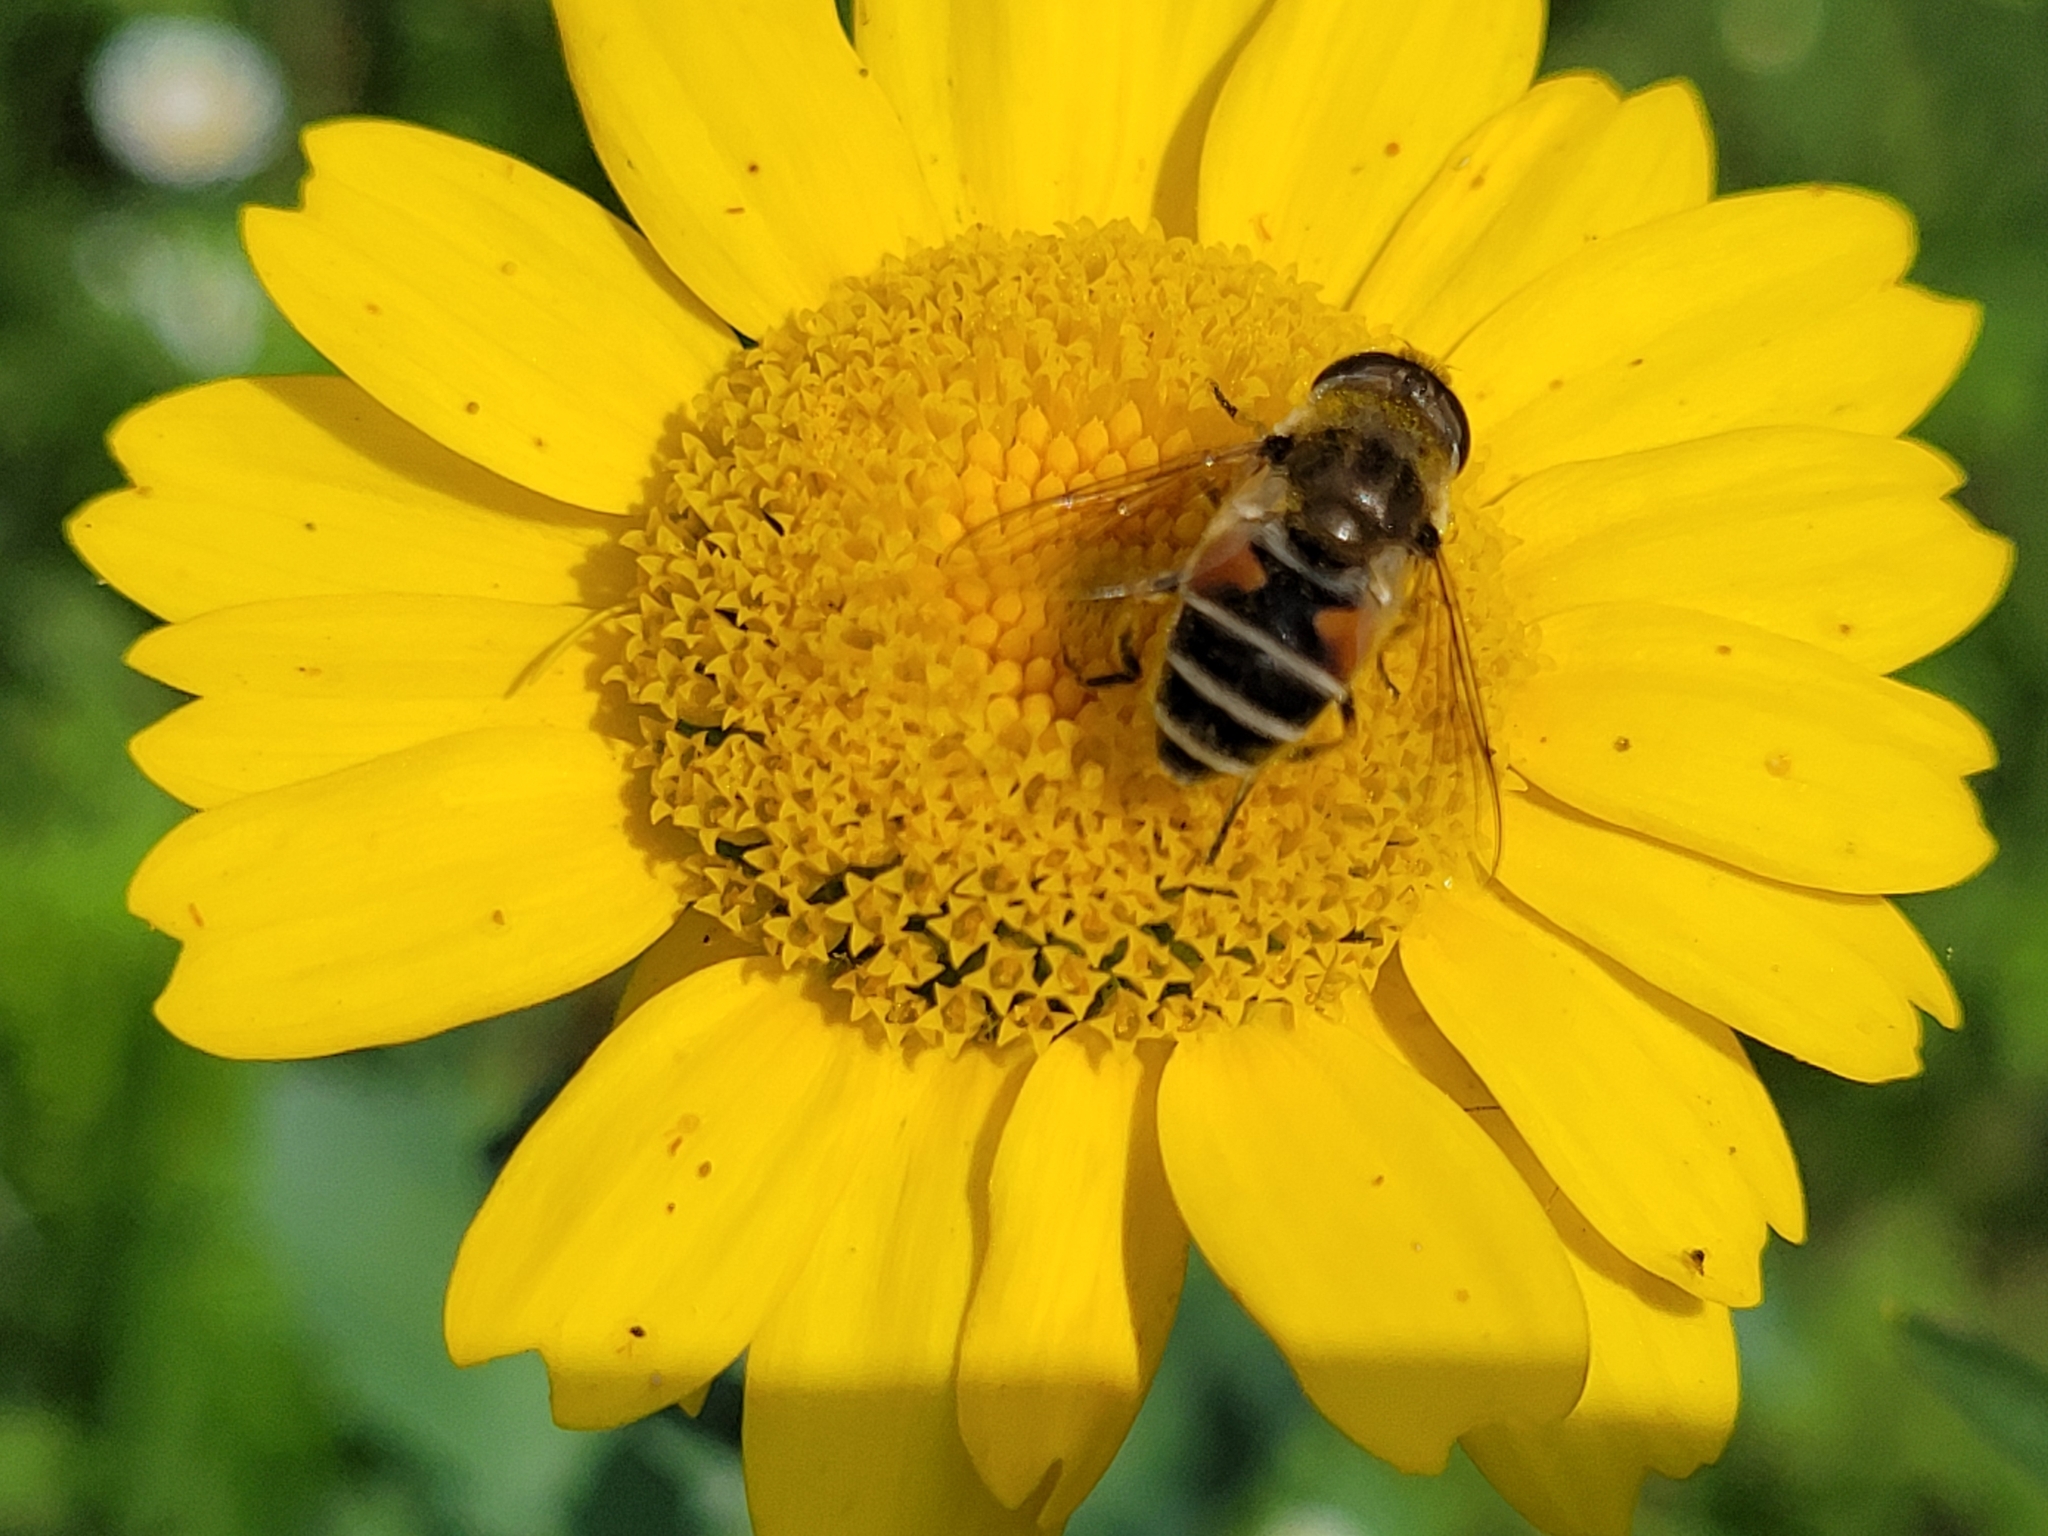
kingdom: Animalia
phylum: Arthropoda
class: Insecta
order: Diptera
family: Syrphidae
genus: Eristalis
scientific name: Eristalis arbustorum
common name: Hover fly
